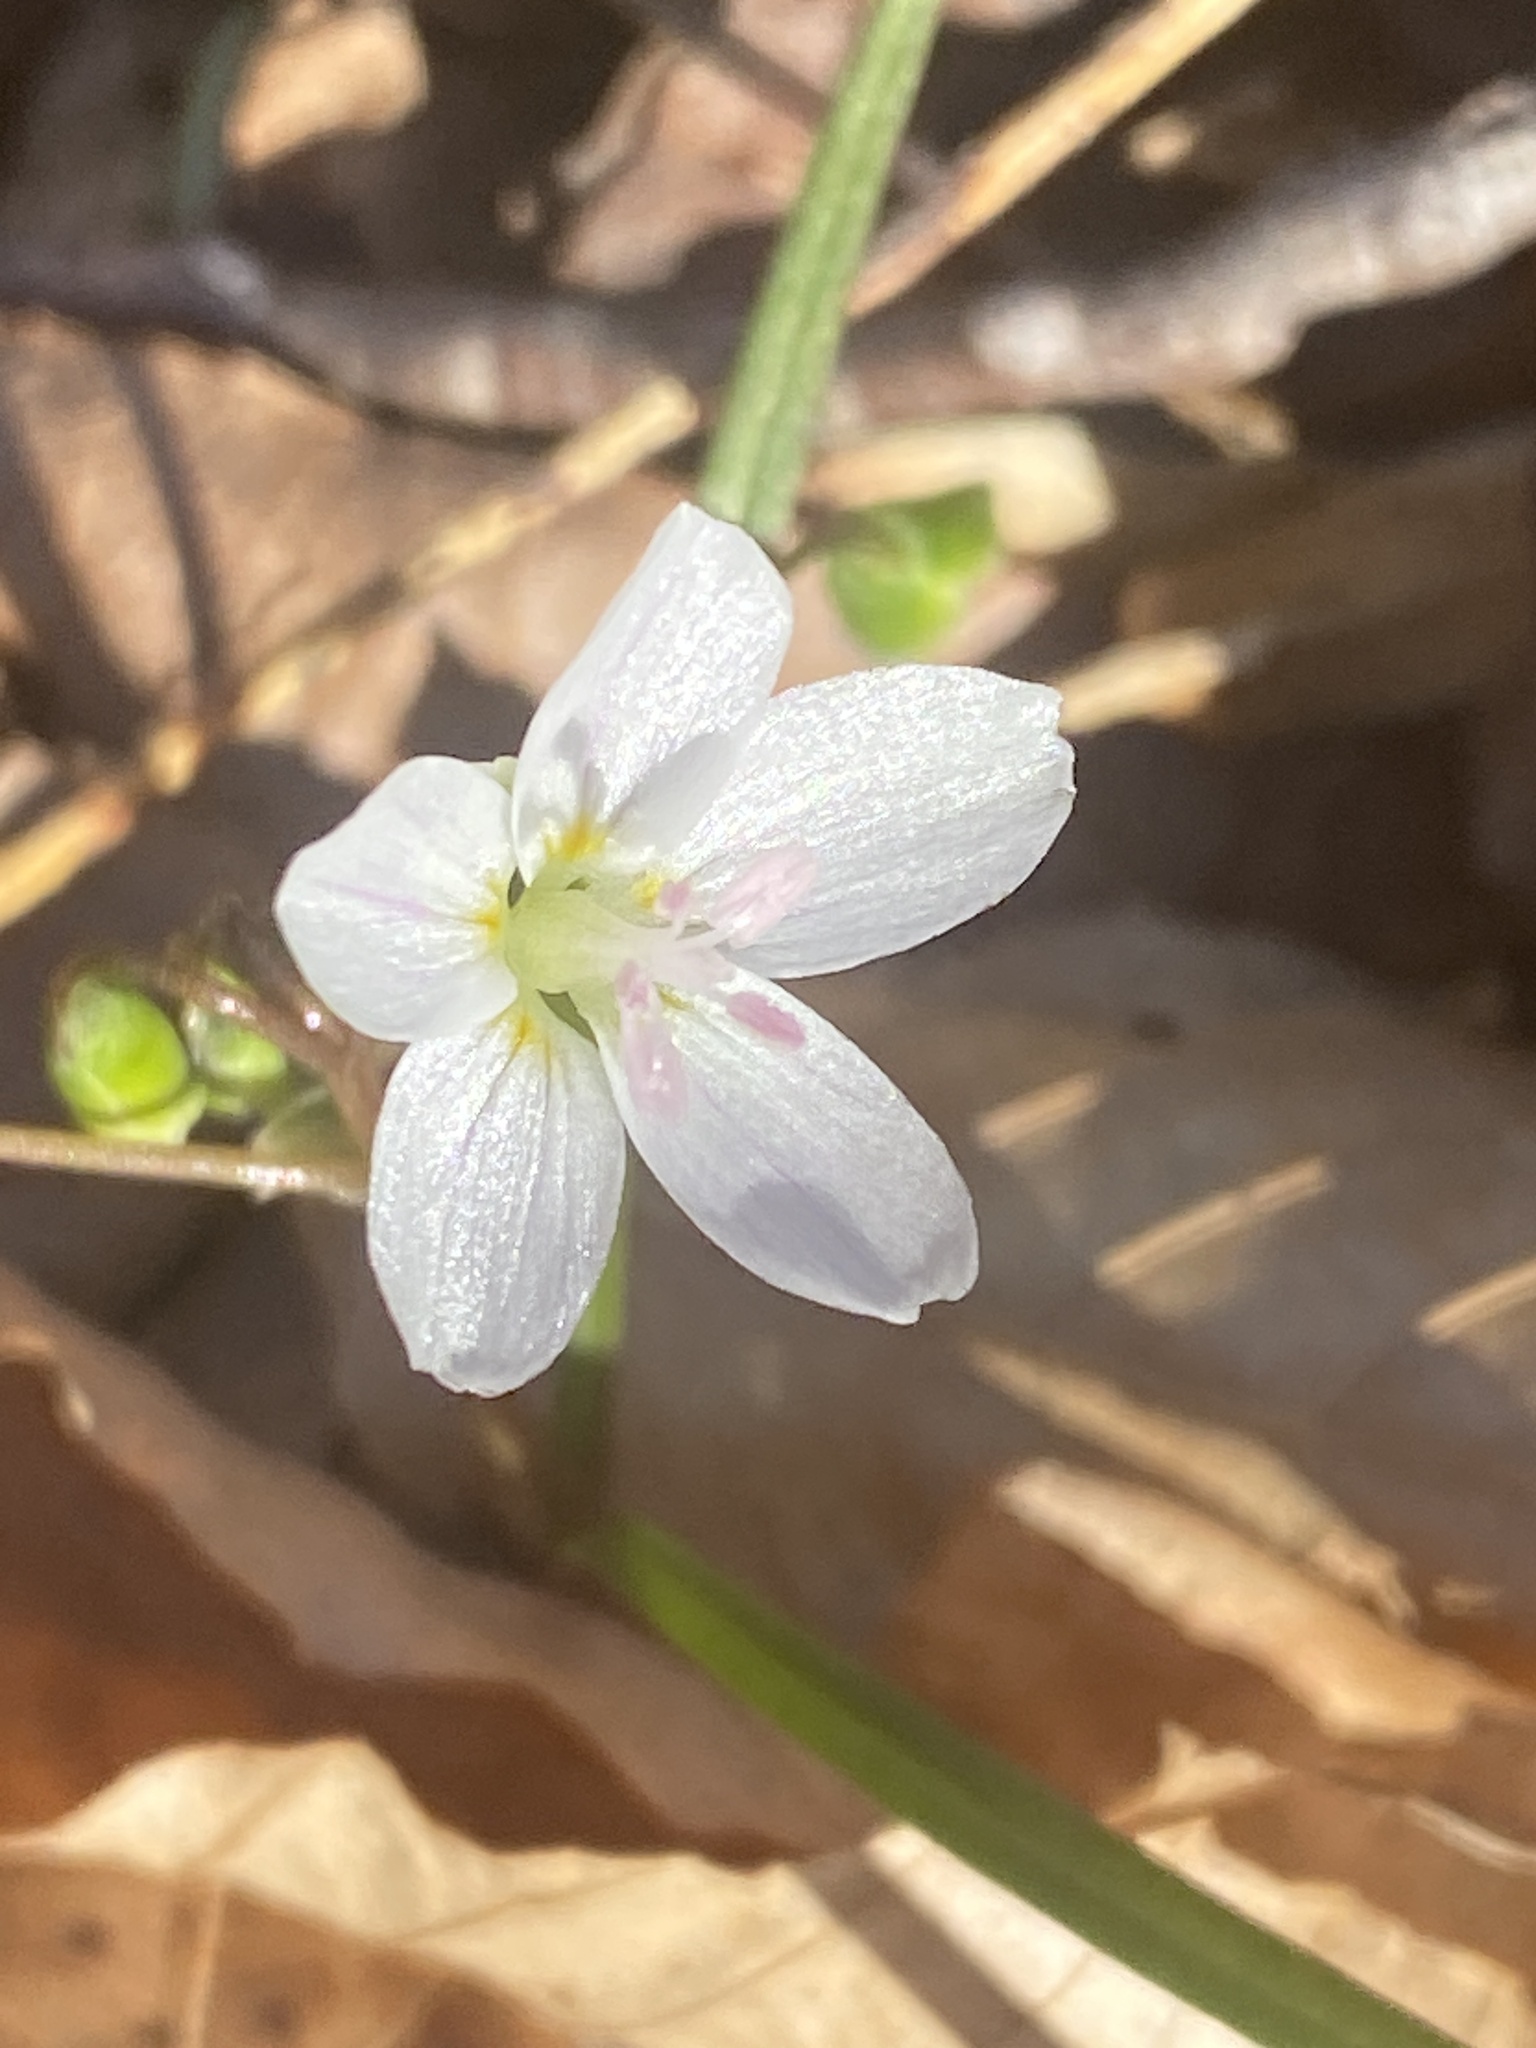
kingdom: Plantae
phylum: Tracheophyta
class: Magnoliopsida
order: Caryophyllales
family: Montiaceae
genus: Claytonia
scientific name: Claytonia virginica
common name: Virginia springbeauty
